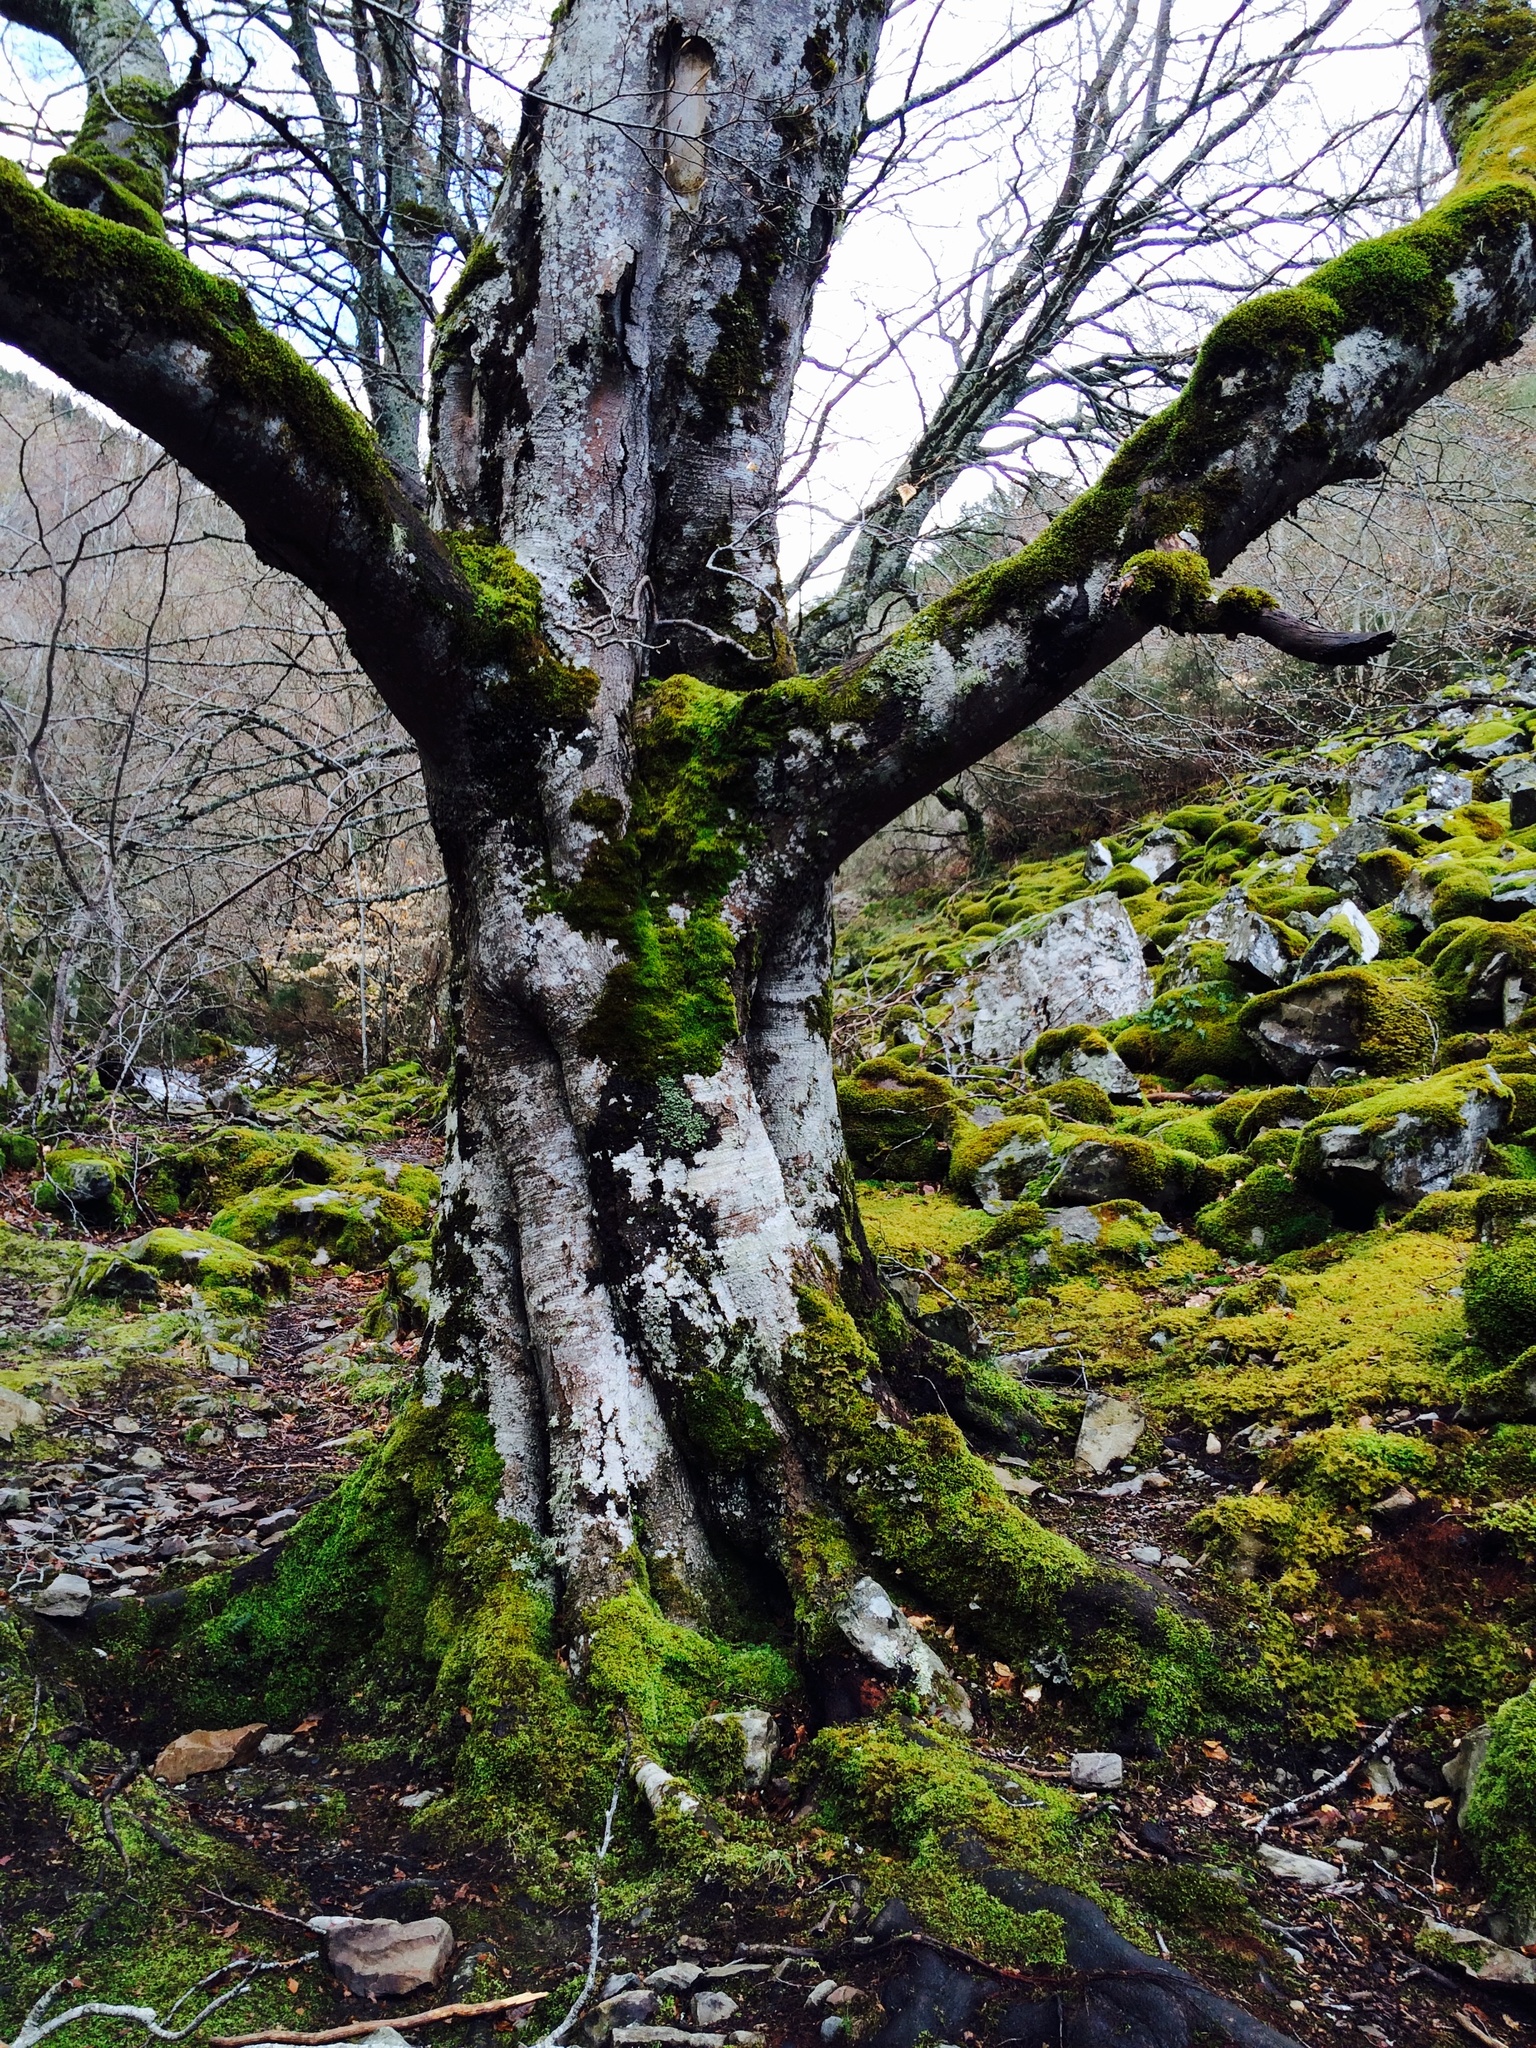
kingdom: Plantae
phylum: Tracheophyta
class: Magnoliopsida
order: Fagales
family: Fagaceae
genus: Fagus
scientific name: Fagus sylvatica
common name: Beech
